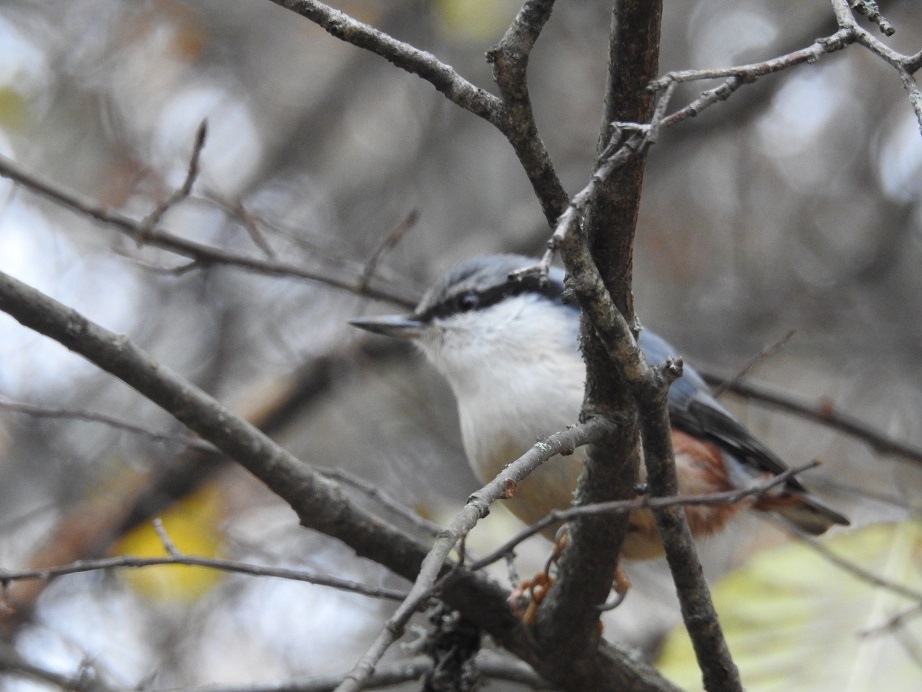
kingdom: Animalia
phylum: Chordata
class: Aves
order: Passeriformes
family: Sittidae
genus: Sitta
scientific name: Sitta europaea
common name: Eurasian nuthatch
